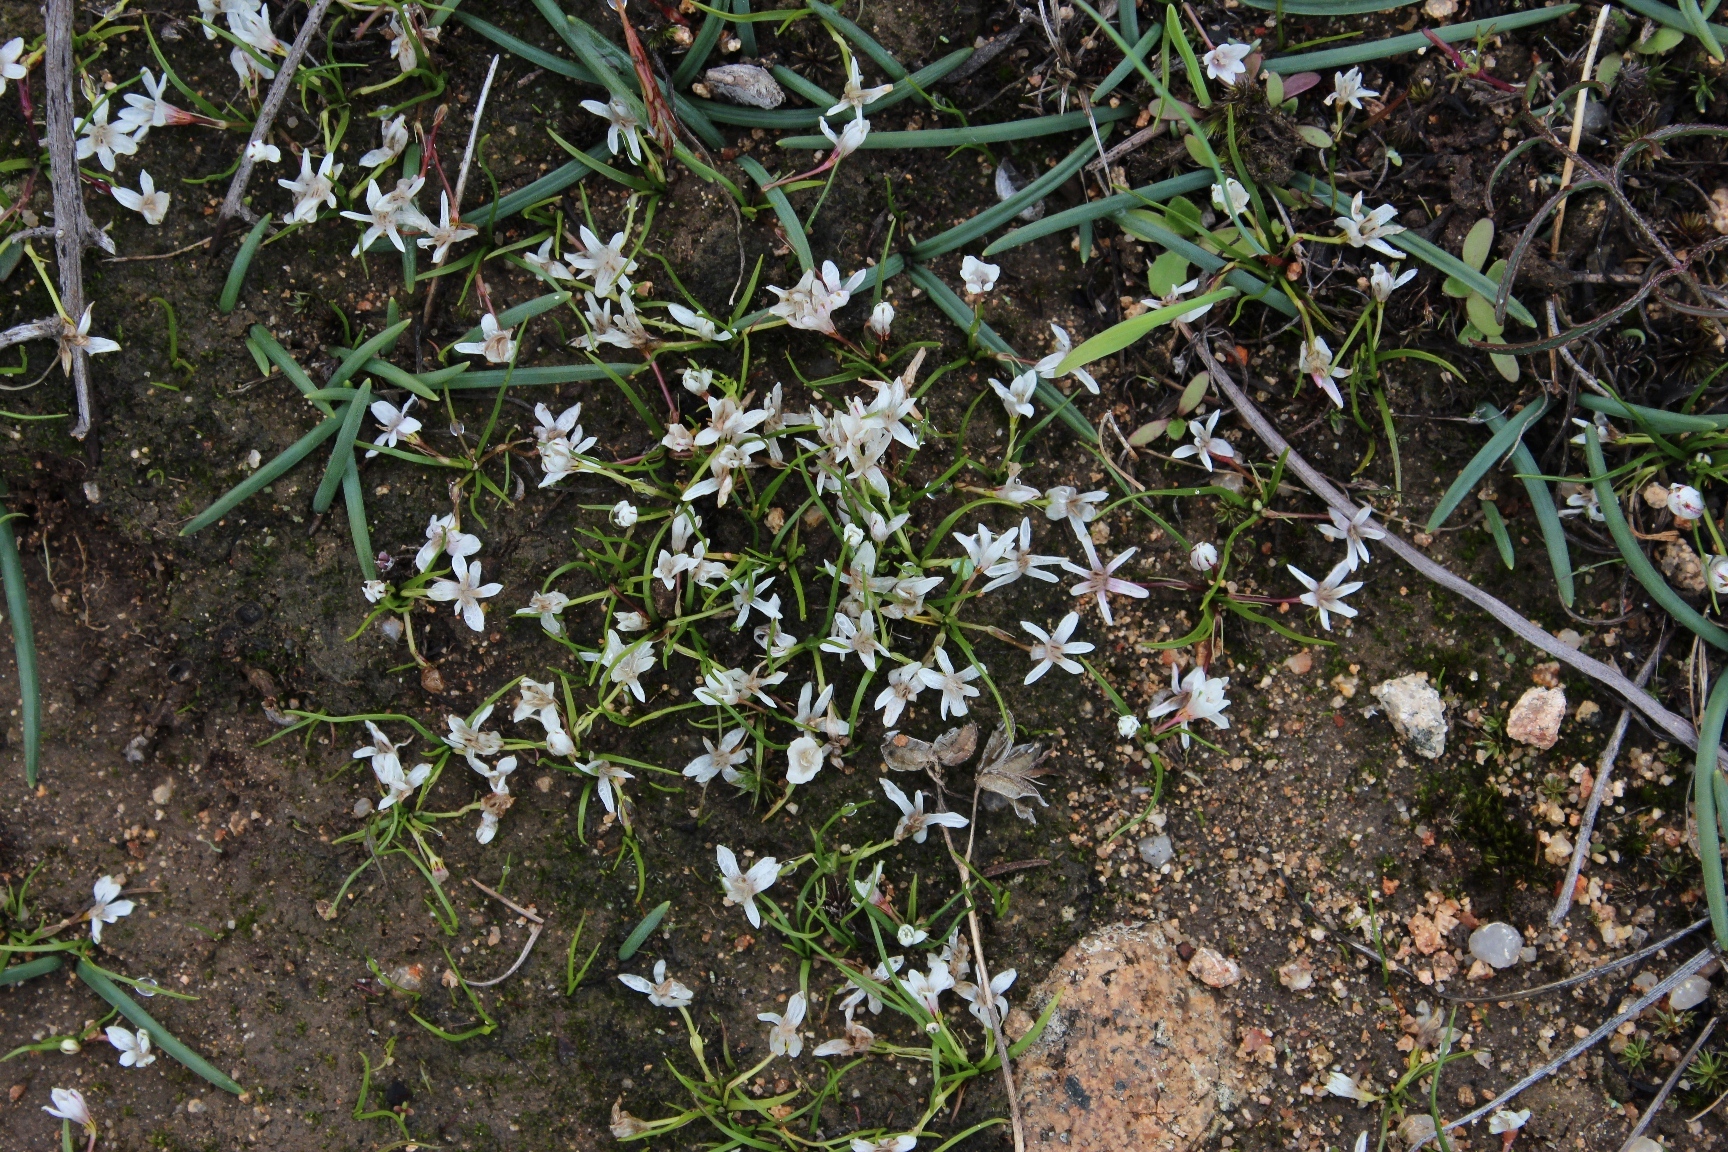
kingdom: Plantae
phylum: Tracheophyta
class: Liliopsida
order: Asparagales
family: Hypoxidaceae
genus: Pauridia
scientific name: Pauridia minuta
